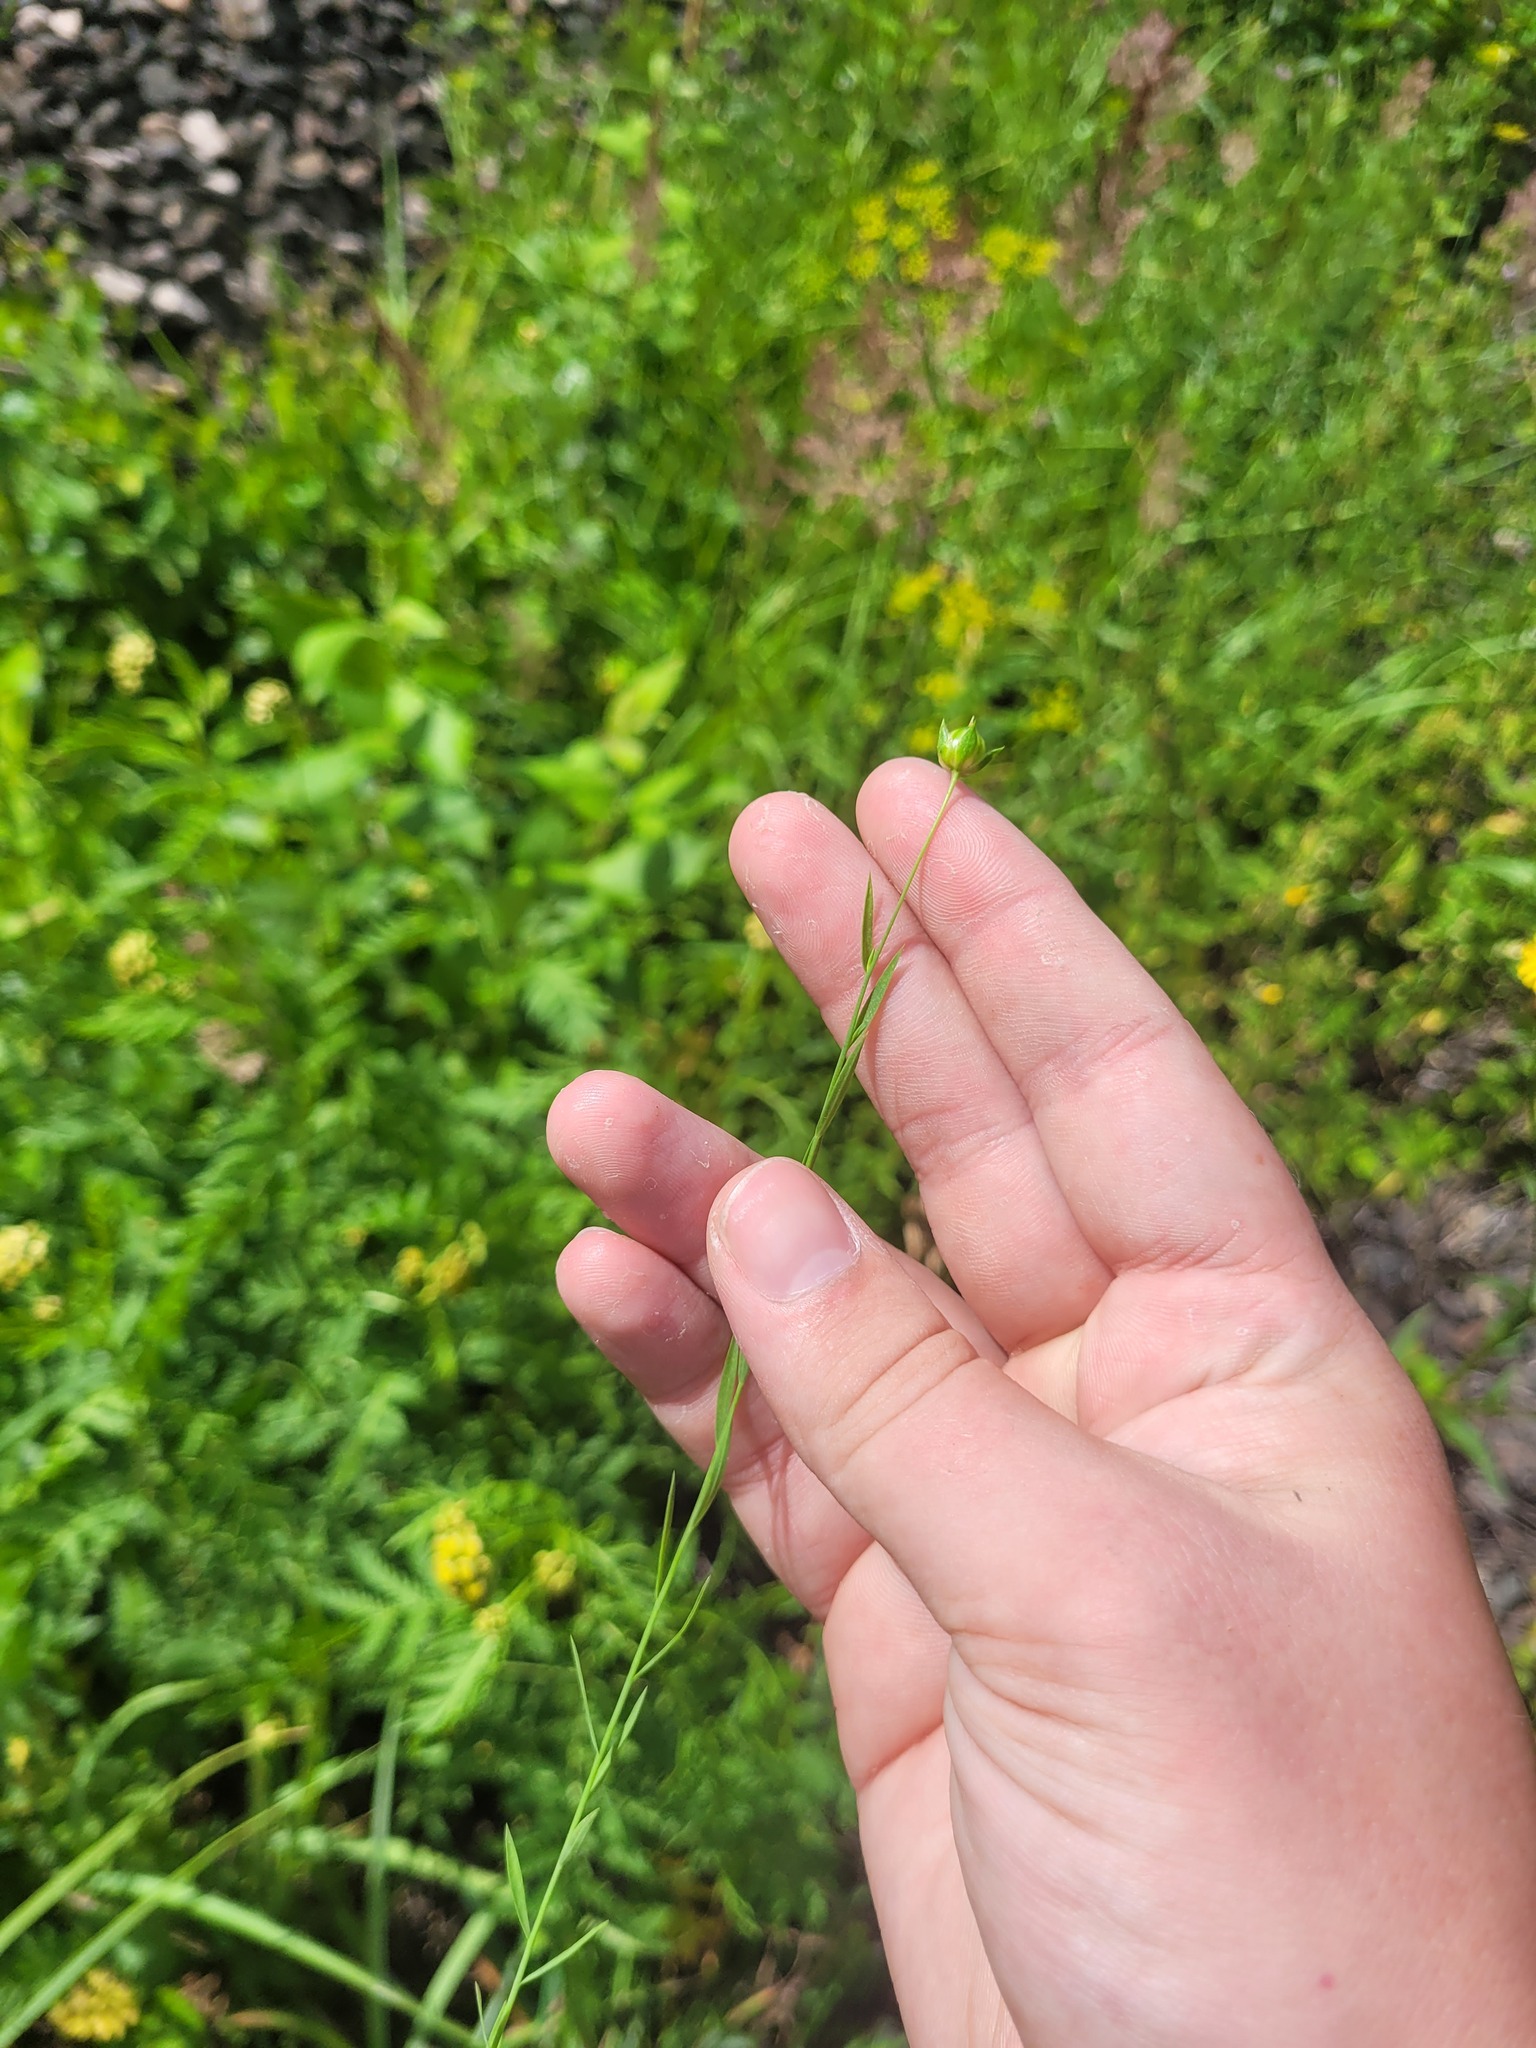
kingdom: Plantae
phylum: Tracheophyta
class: Magnoliopsida
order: Malpighiales
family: Linaceae
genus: Linum
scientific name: Linum usitatissimum
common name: Flax
